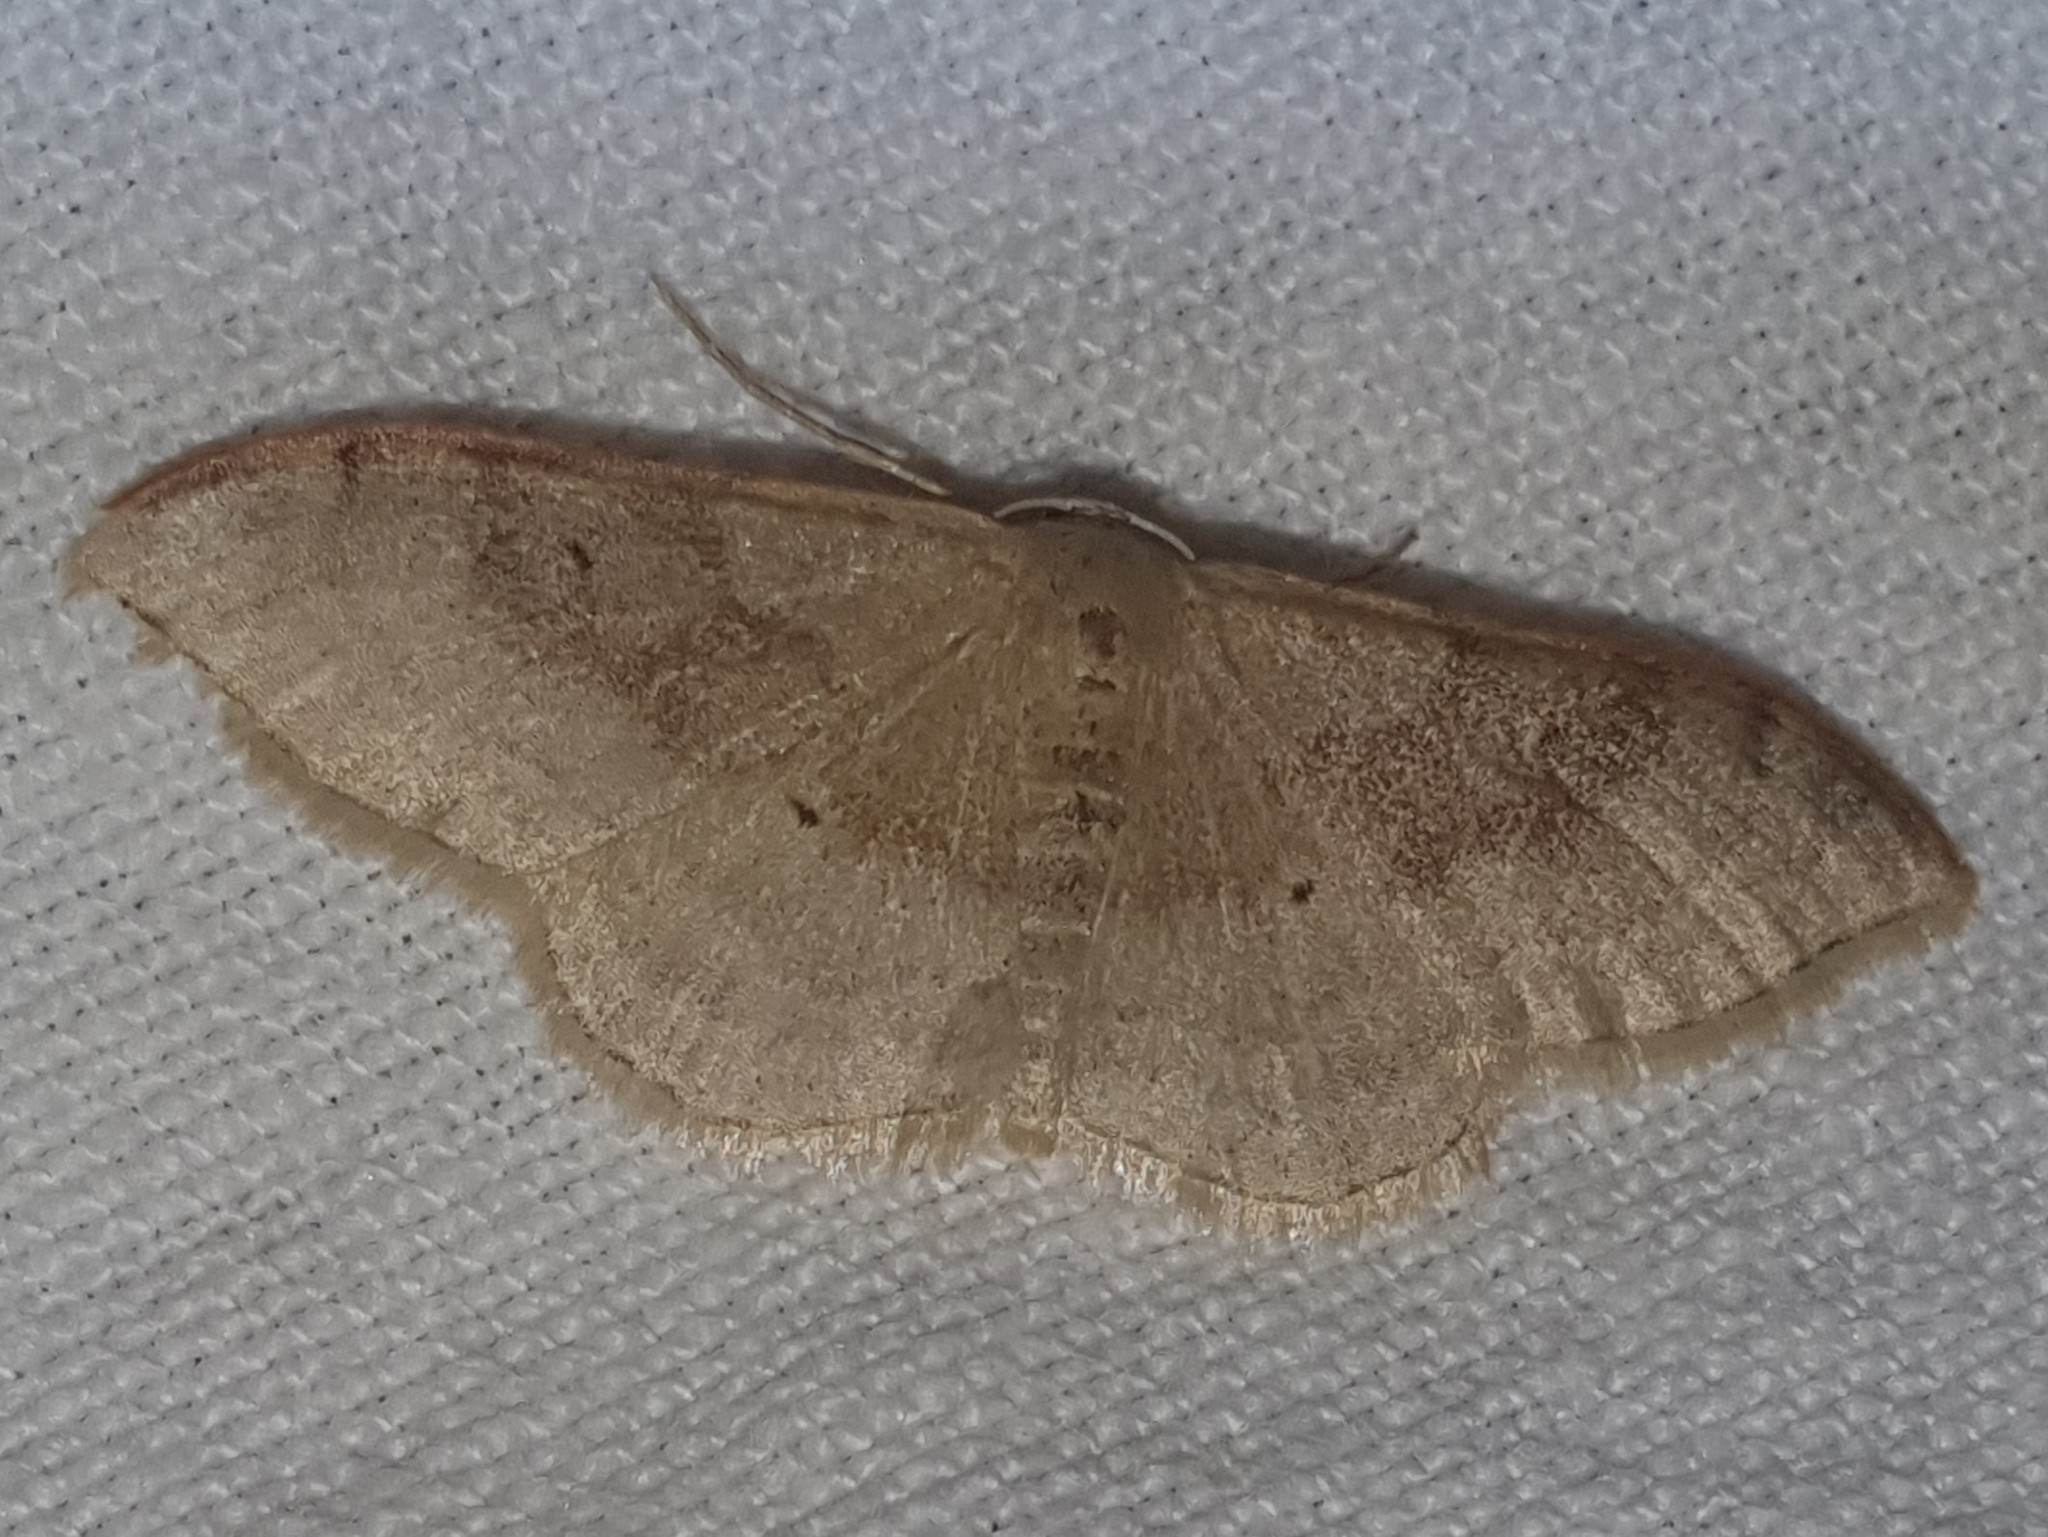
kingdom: Animalia
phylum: Arthropoda
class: Insecta
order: Lepidoptera
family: Geometridae
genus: Idaea
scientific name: Idaea degeneraria
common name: Portland ribbon wave
